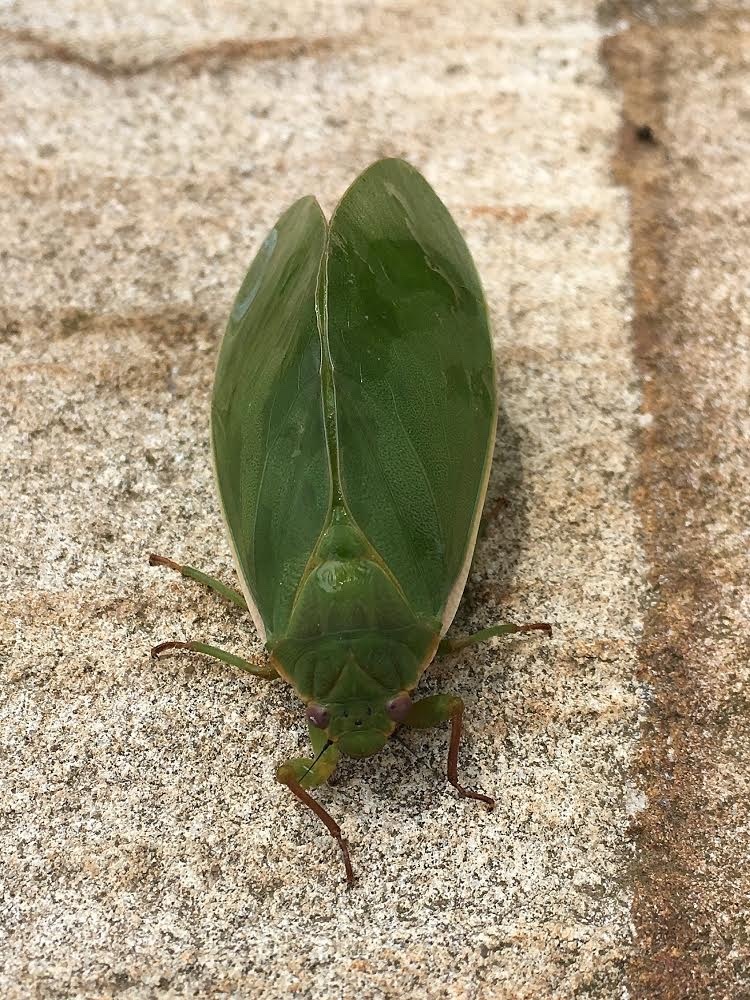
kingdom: Animalia
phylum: Arthropoda
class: Insecta
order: Hemiptera
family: Cicadidae
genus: Cystosoma
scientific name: Cystosoma saundersii
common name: Bladder cicada
